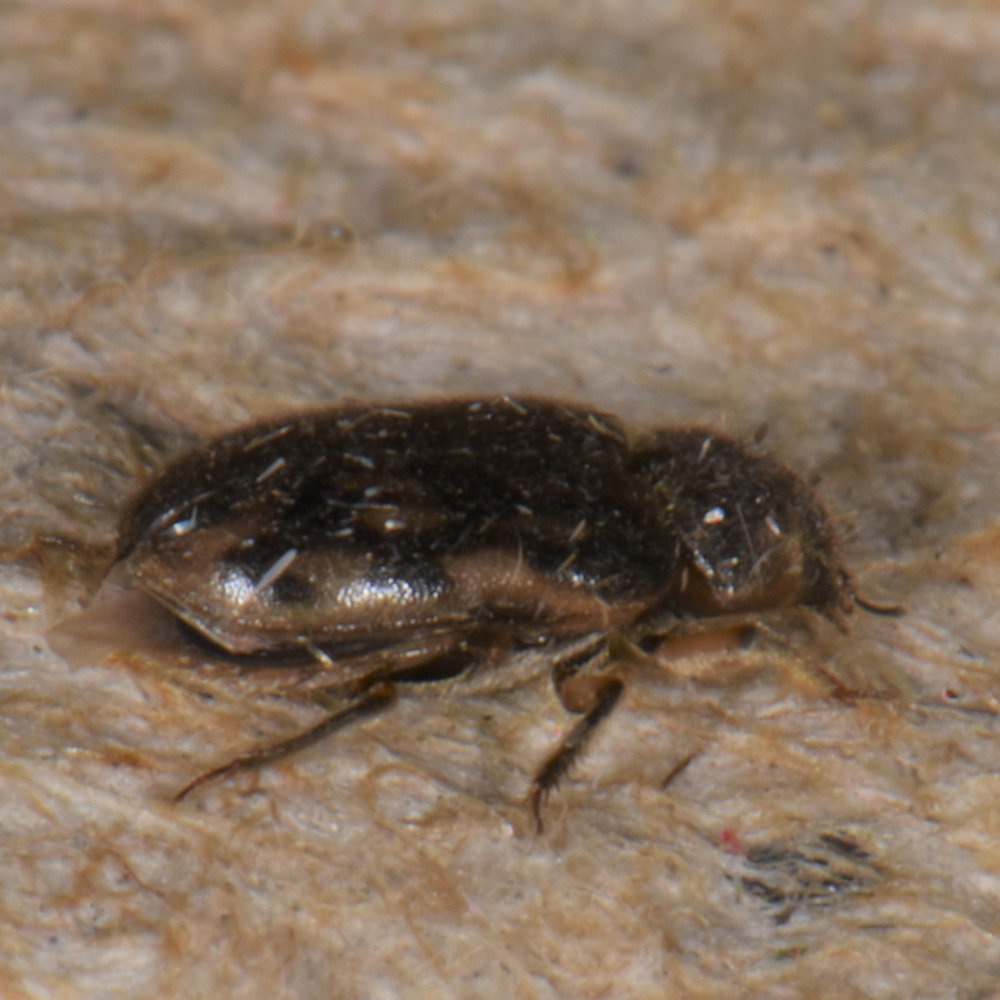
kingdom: Animalia
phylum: Arthropoda
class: Insecta
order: Coleoptera
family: Heteroceridae
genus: Heterocerus
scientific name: Heterocerus fenestratus
